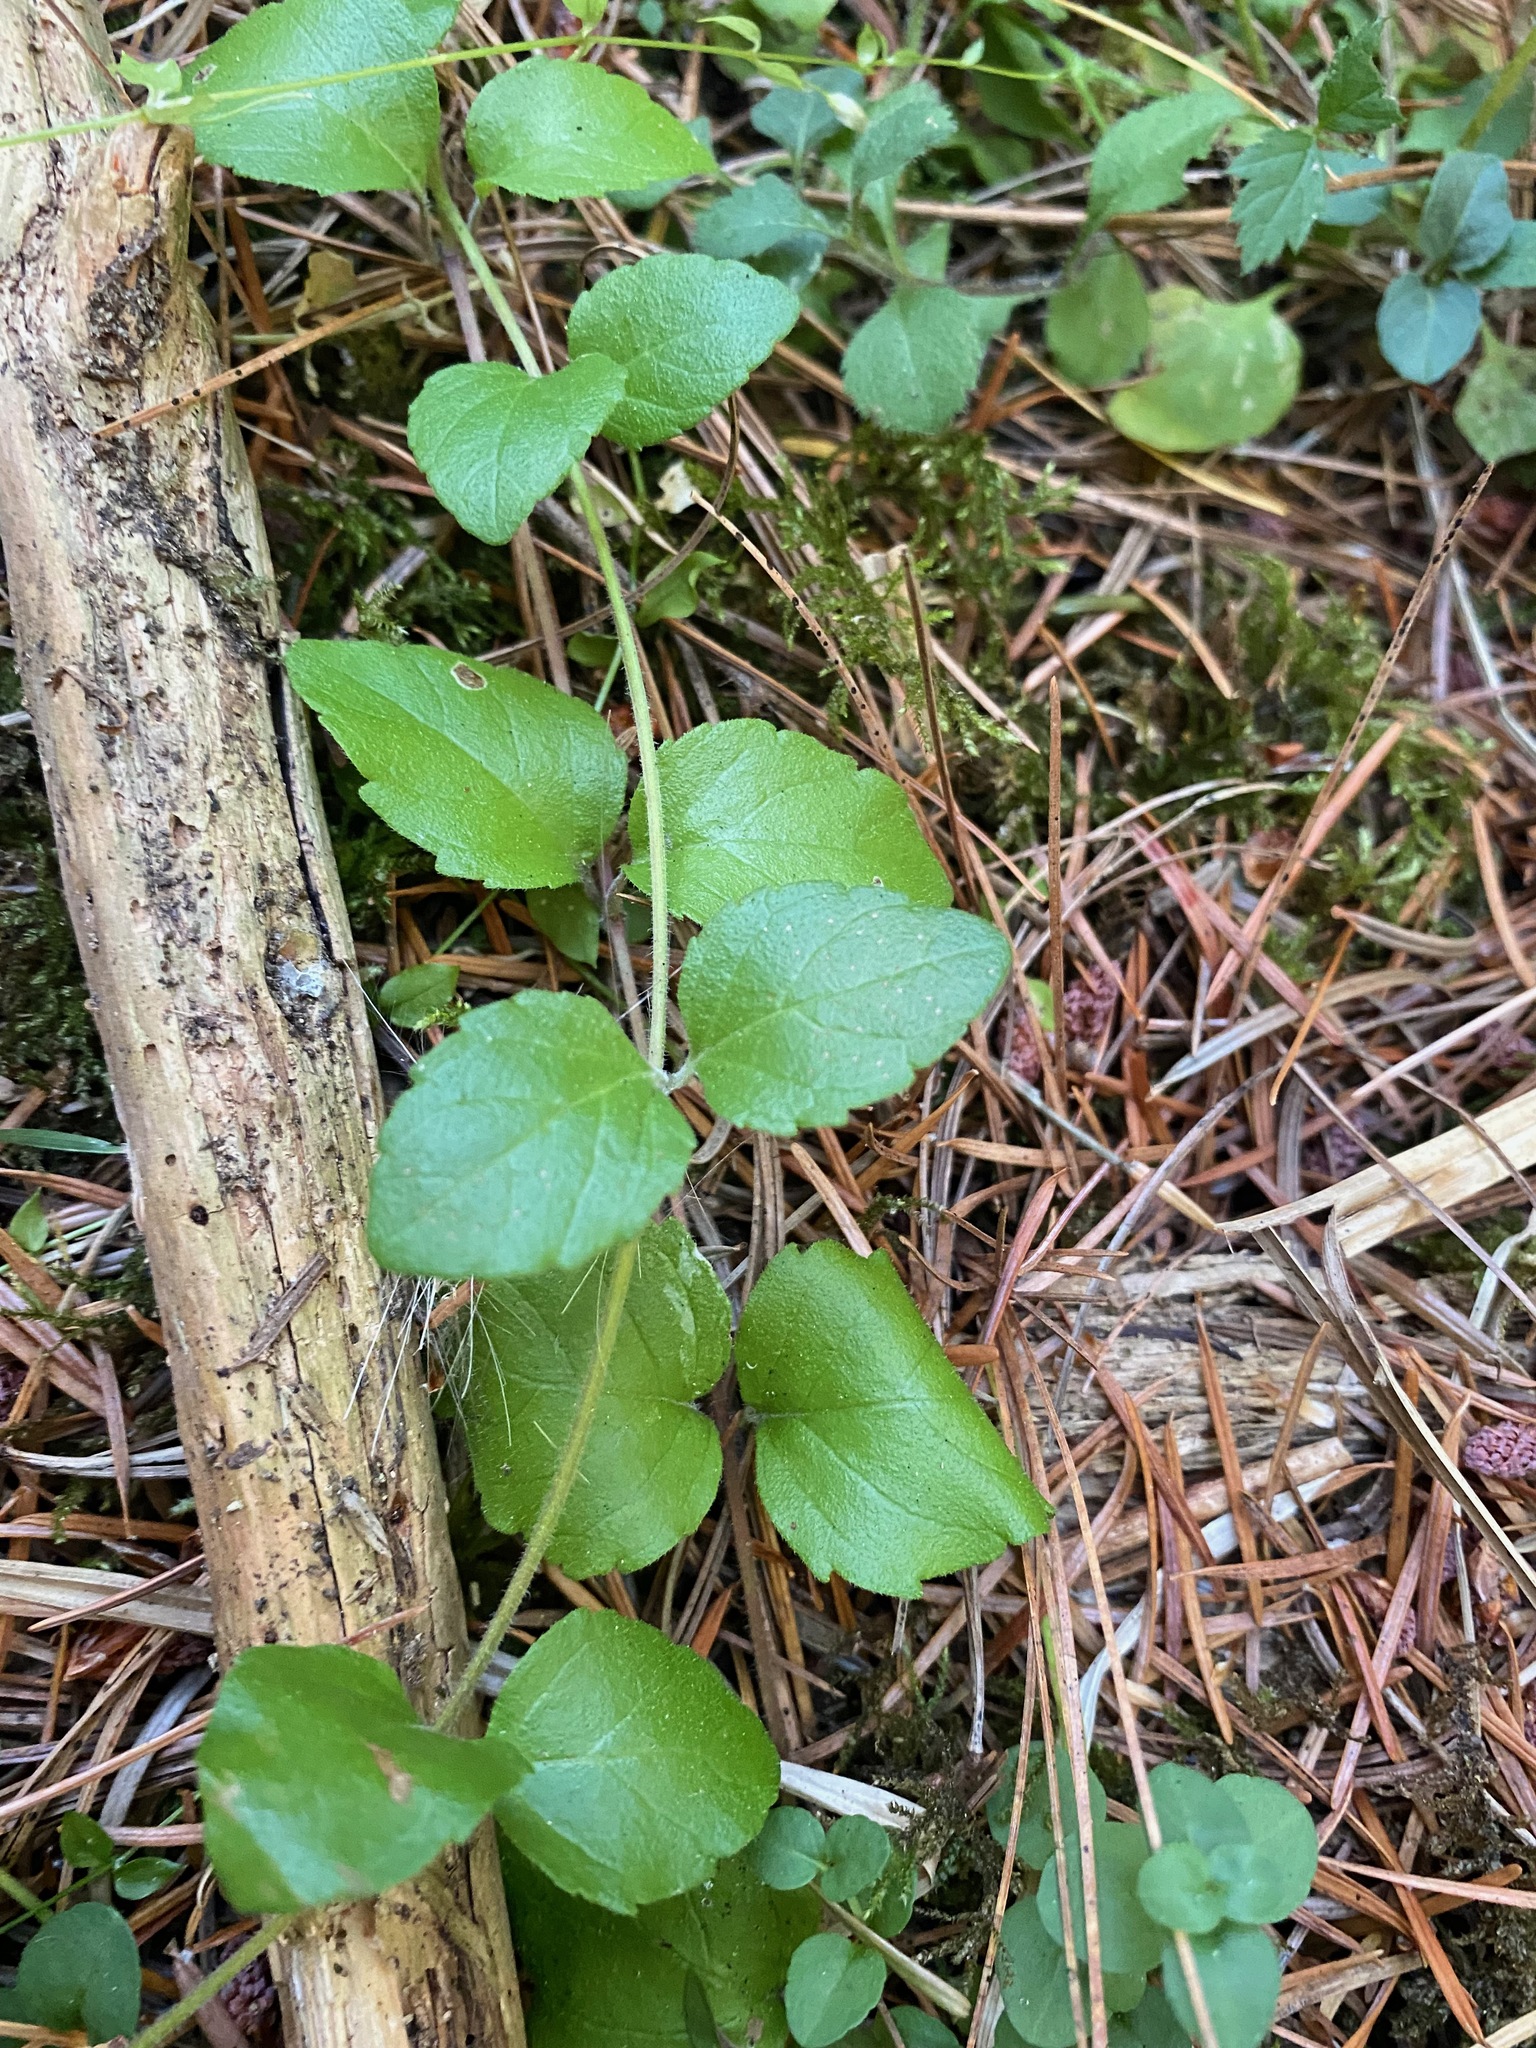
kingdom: Plantae
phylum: Tracheophyta
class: Magnoliopsida
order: Lamiales
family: Lamiaceae
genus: Micromeria
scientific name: Micromeria douglasii
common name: Yerba buena
